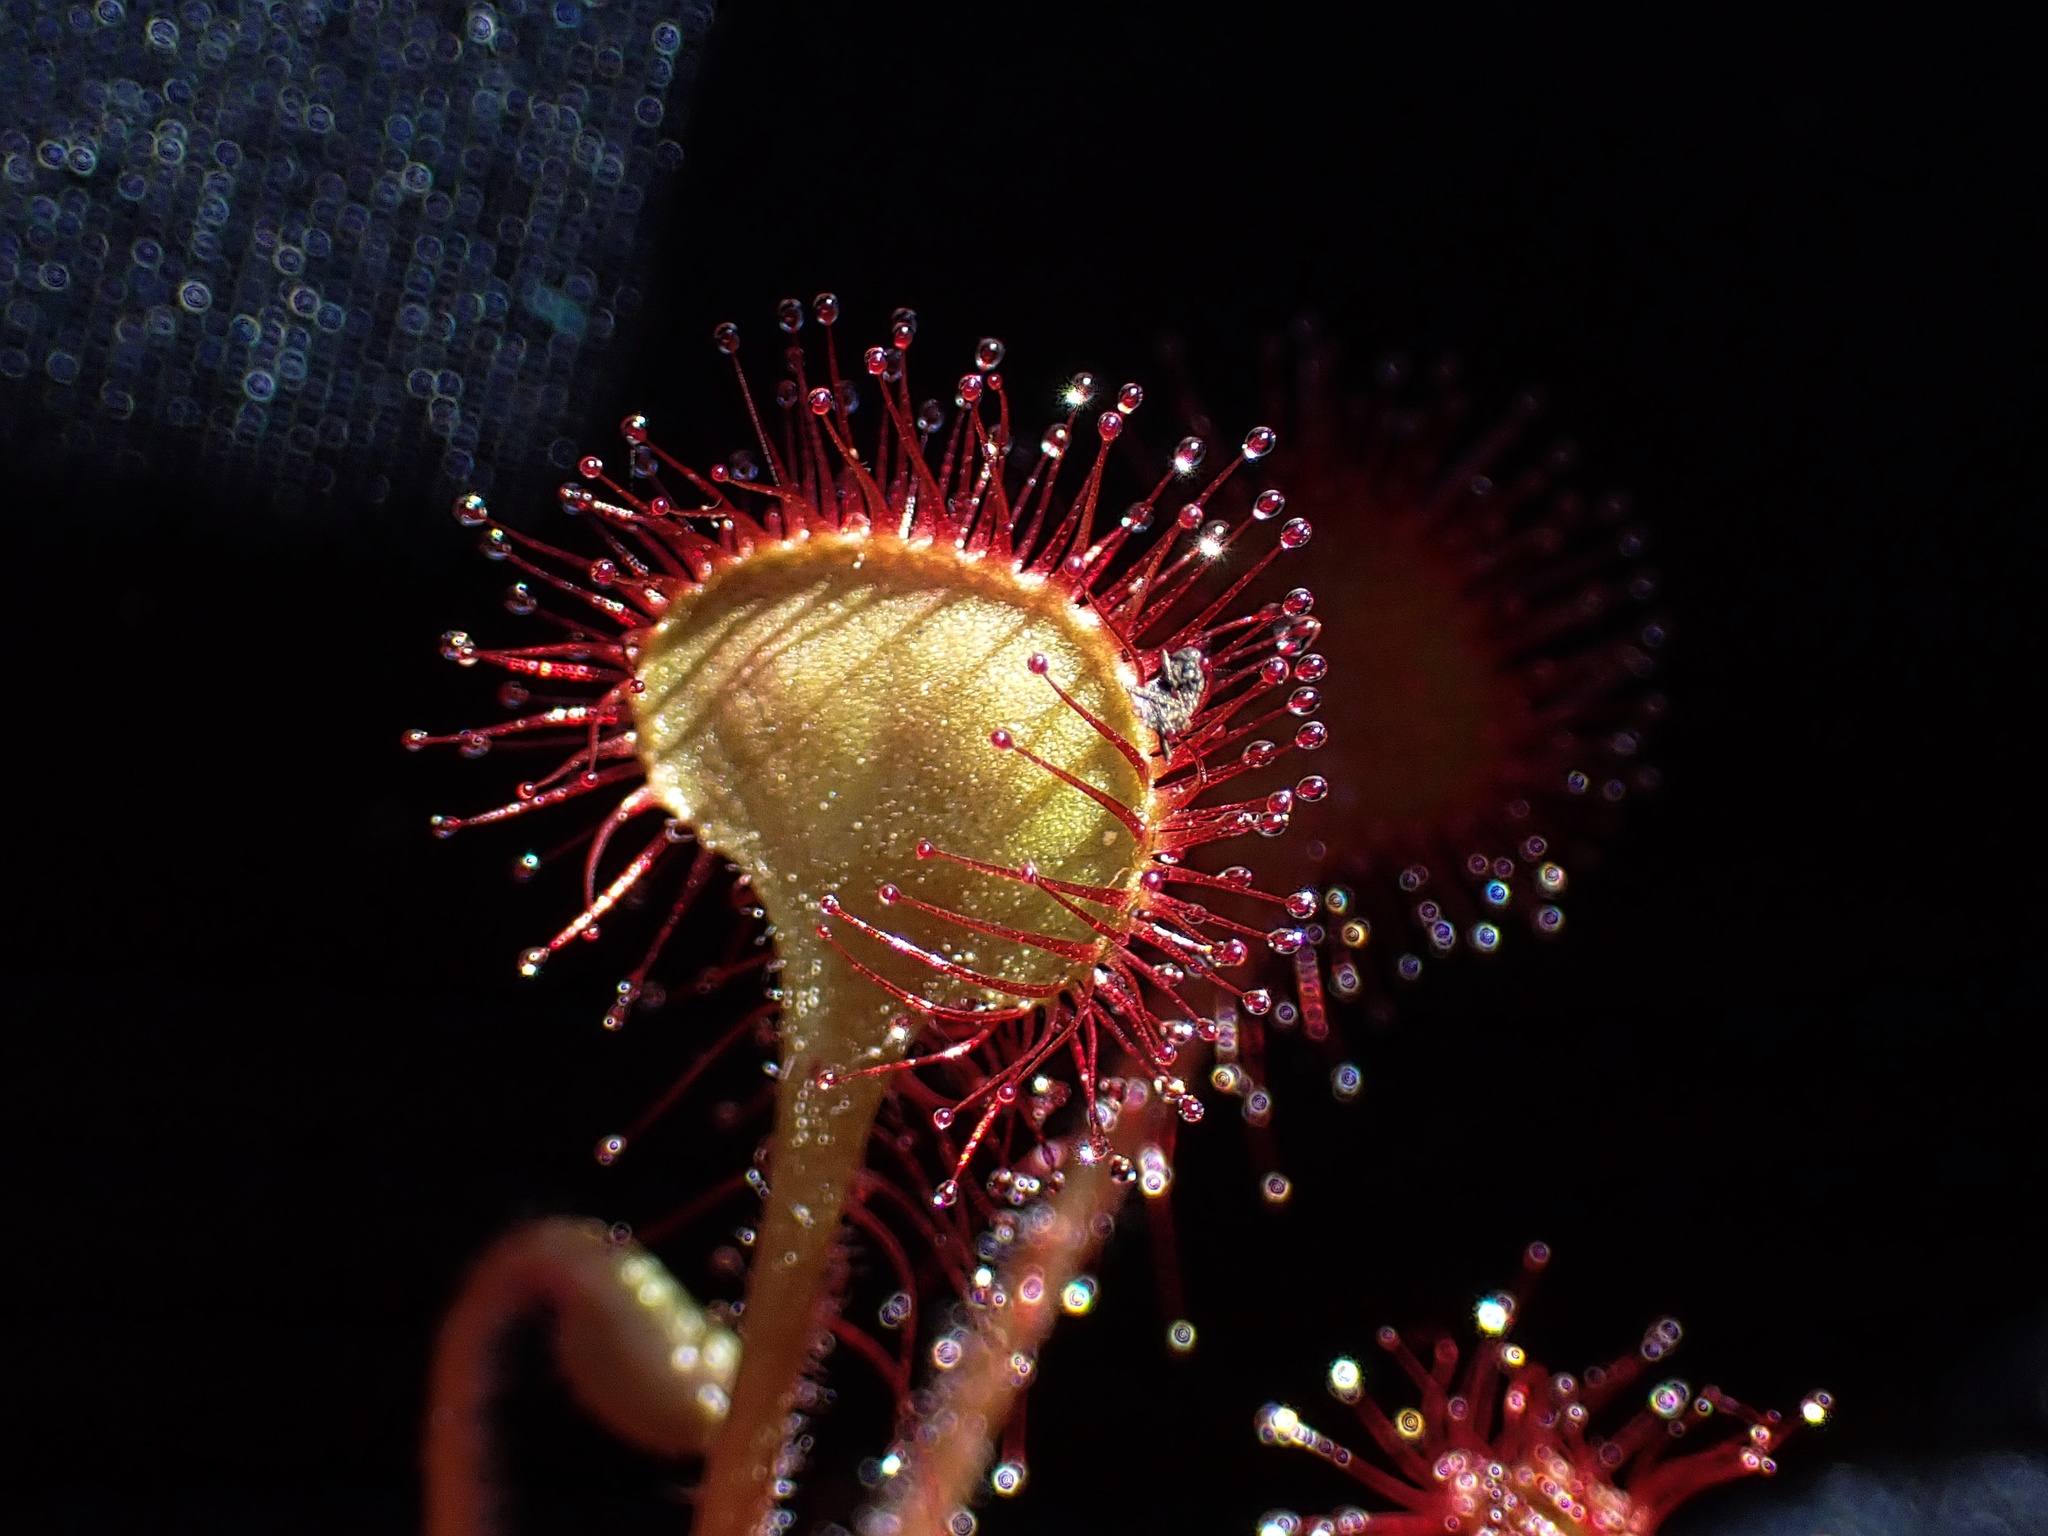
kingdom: Plantae
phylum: Tracheophyta
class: Magnoliopsida
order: Caryophyllales
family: Droseraceae
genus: Drosera
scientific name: Drosera rotundifolia
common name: Round-leaved sundew
